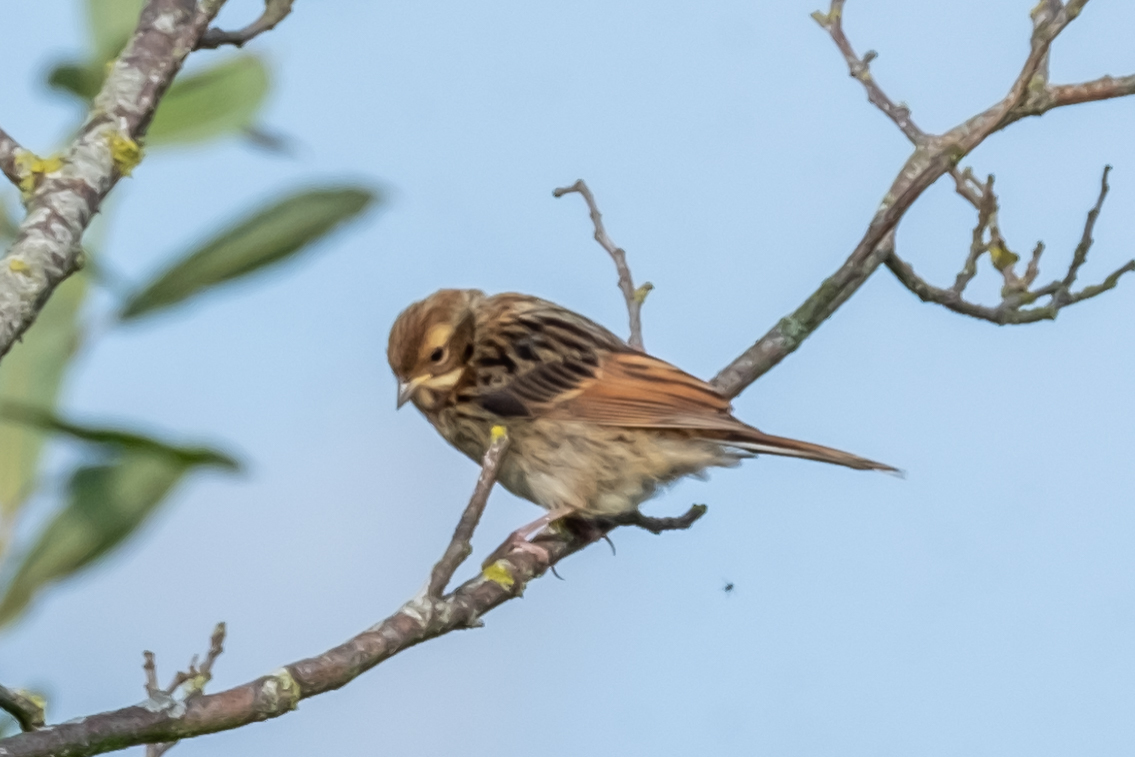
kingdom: Animalia
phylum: Chordata
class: Aves
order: Passeriformes
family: Emberizidae
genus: Emberiza
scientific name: Emberiza schoeniclus
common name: Reed bunting
